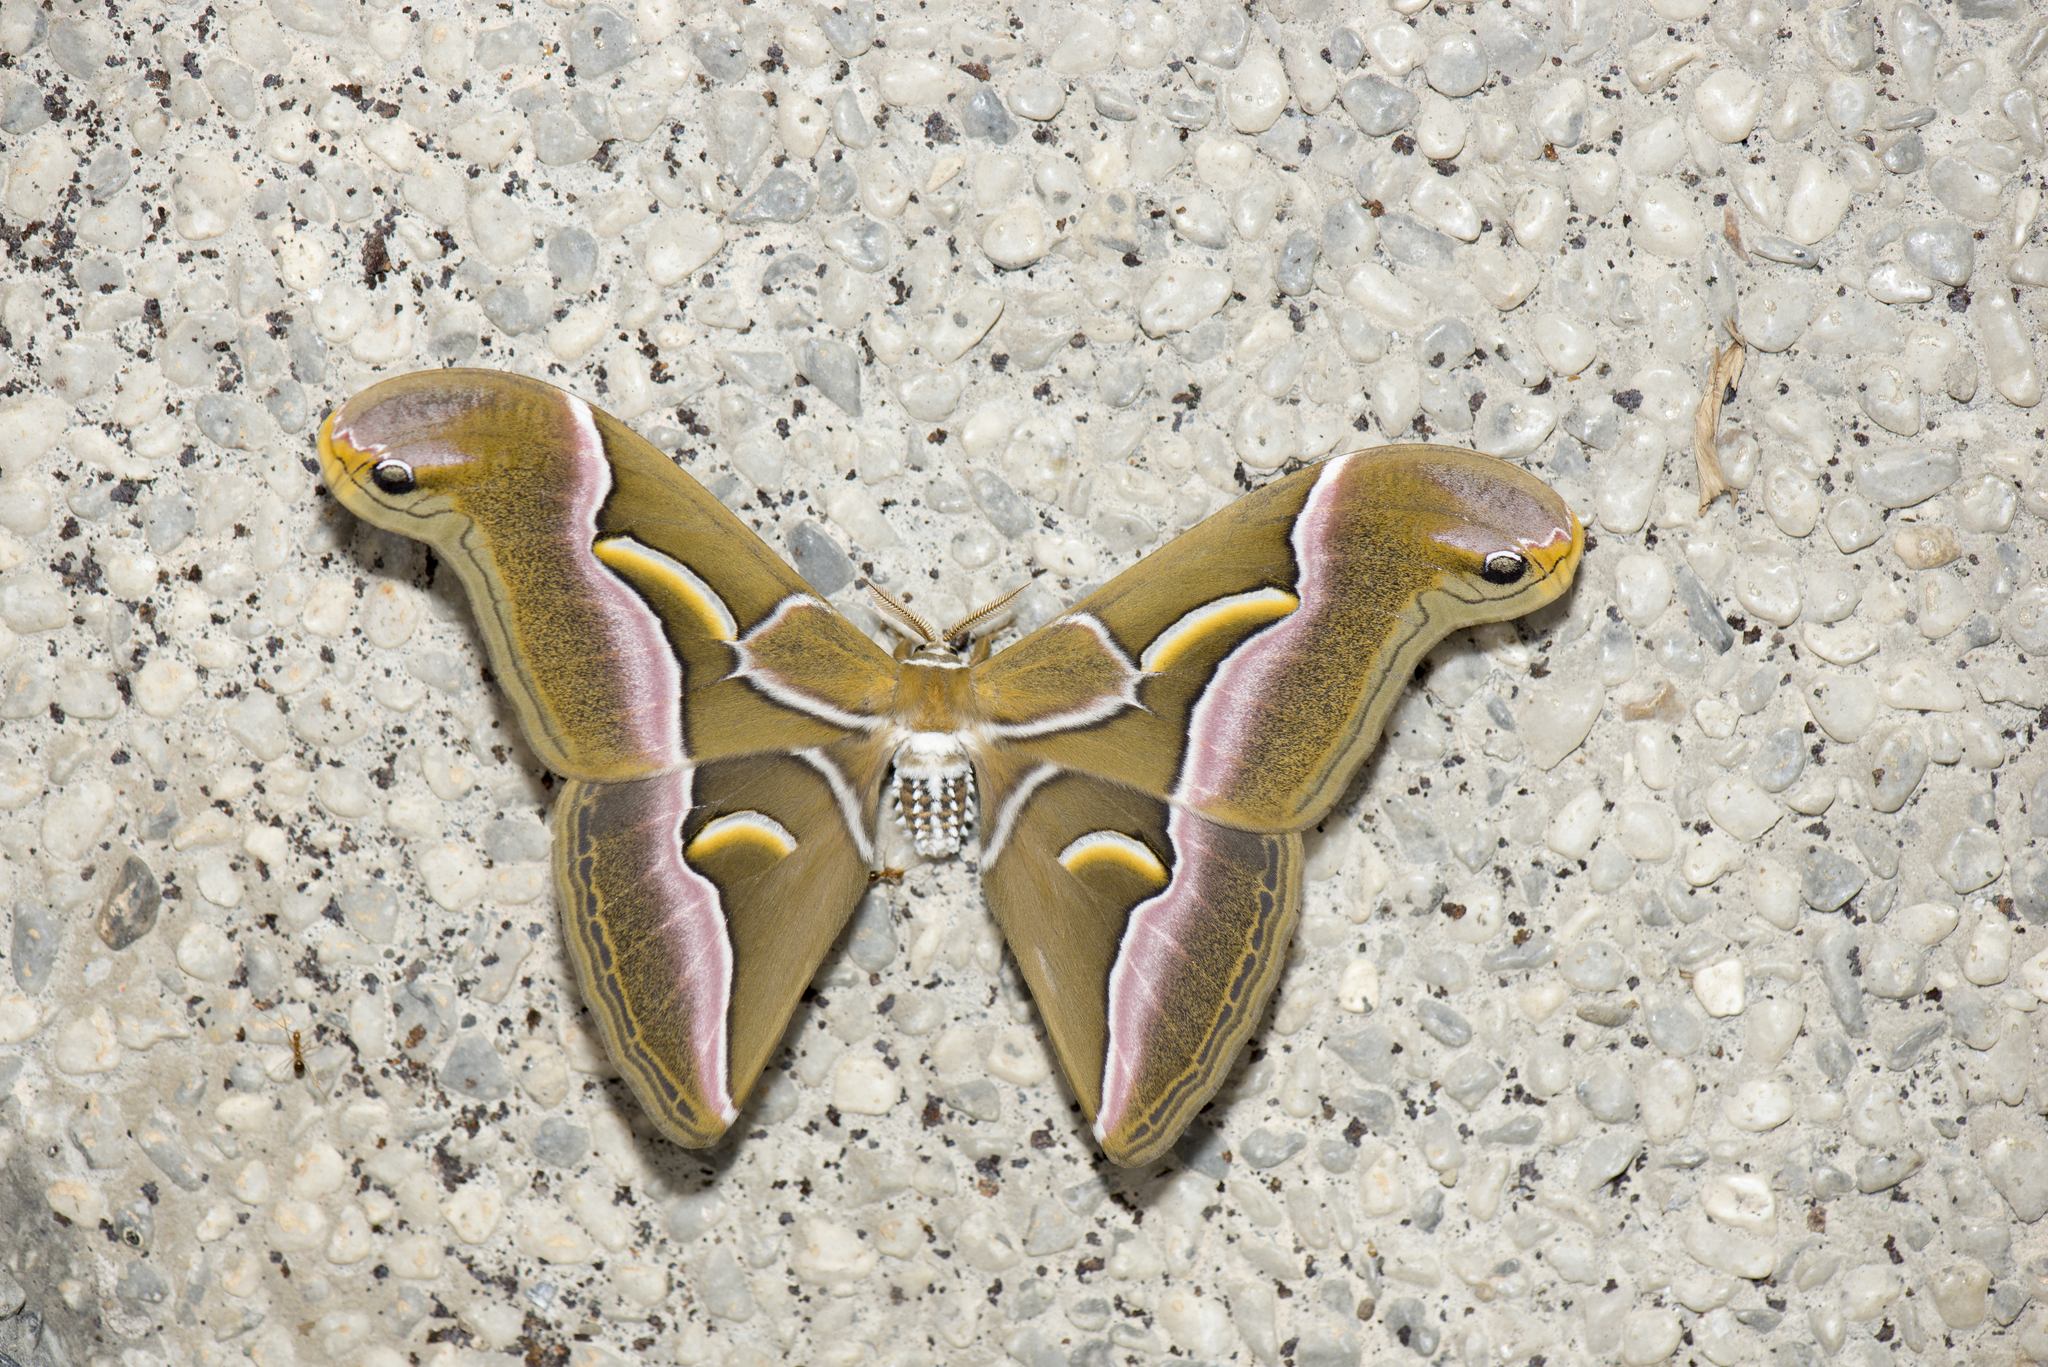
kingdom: Animalia
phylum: Arthropoda
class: Insecta
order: Lepidoptera
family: Saturniidae
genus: Samia
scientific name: Samia wangi
